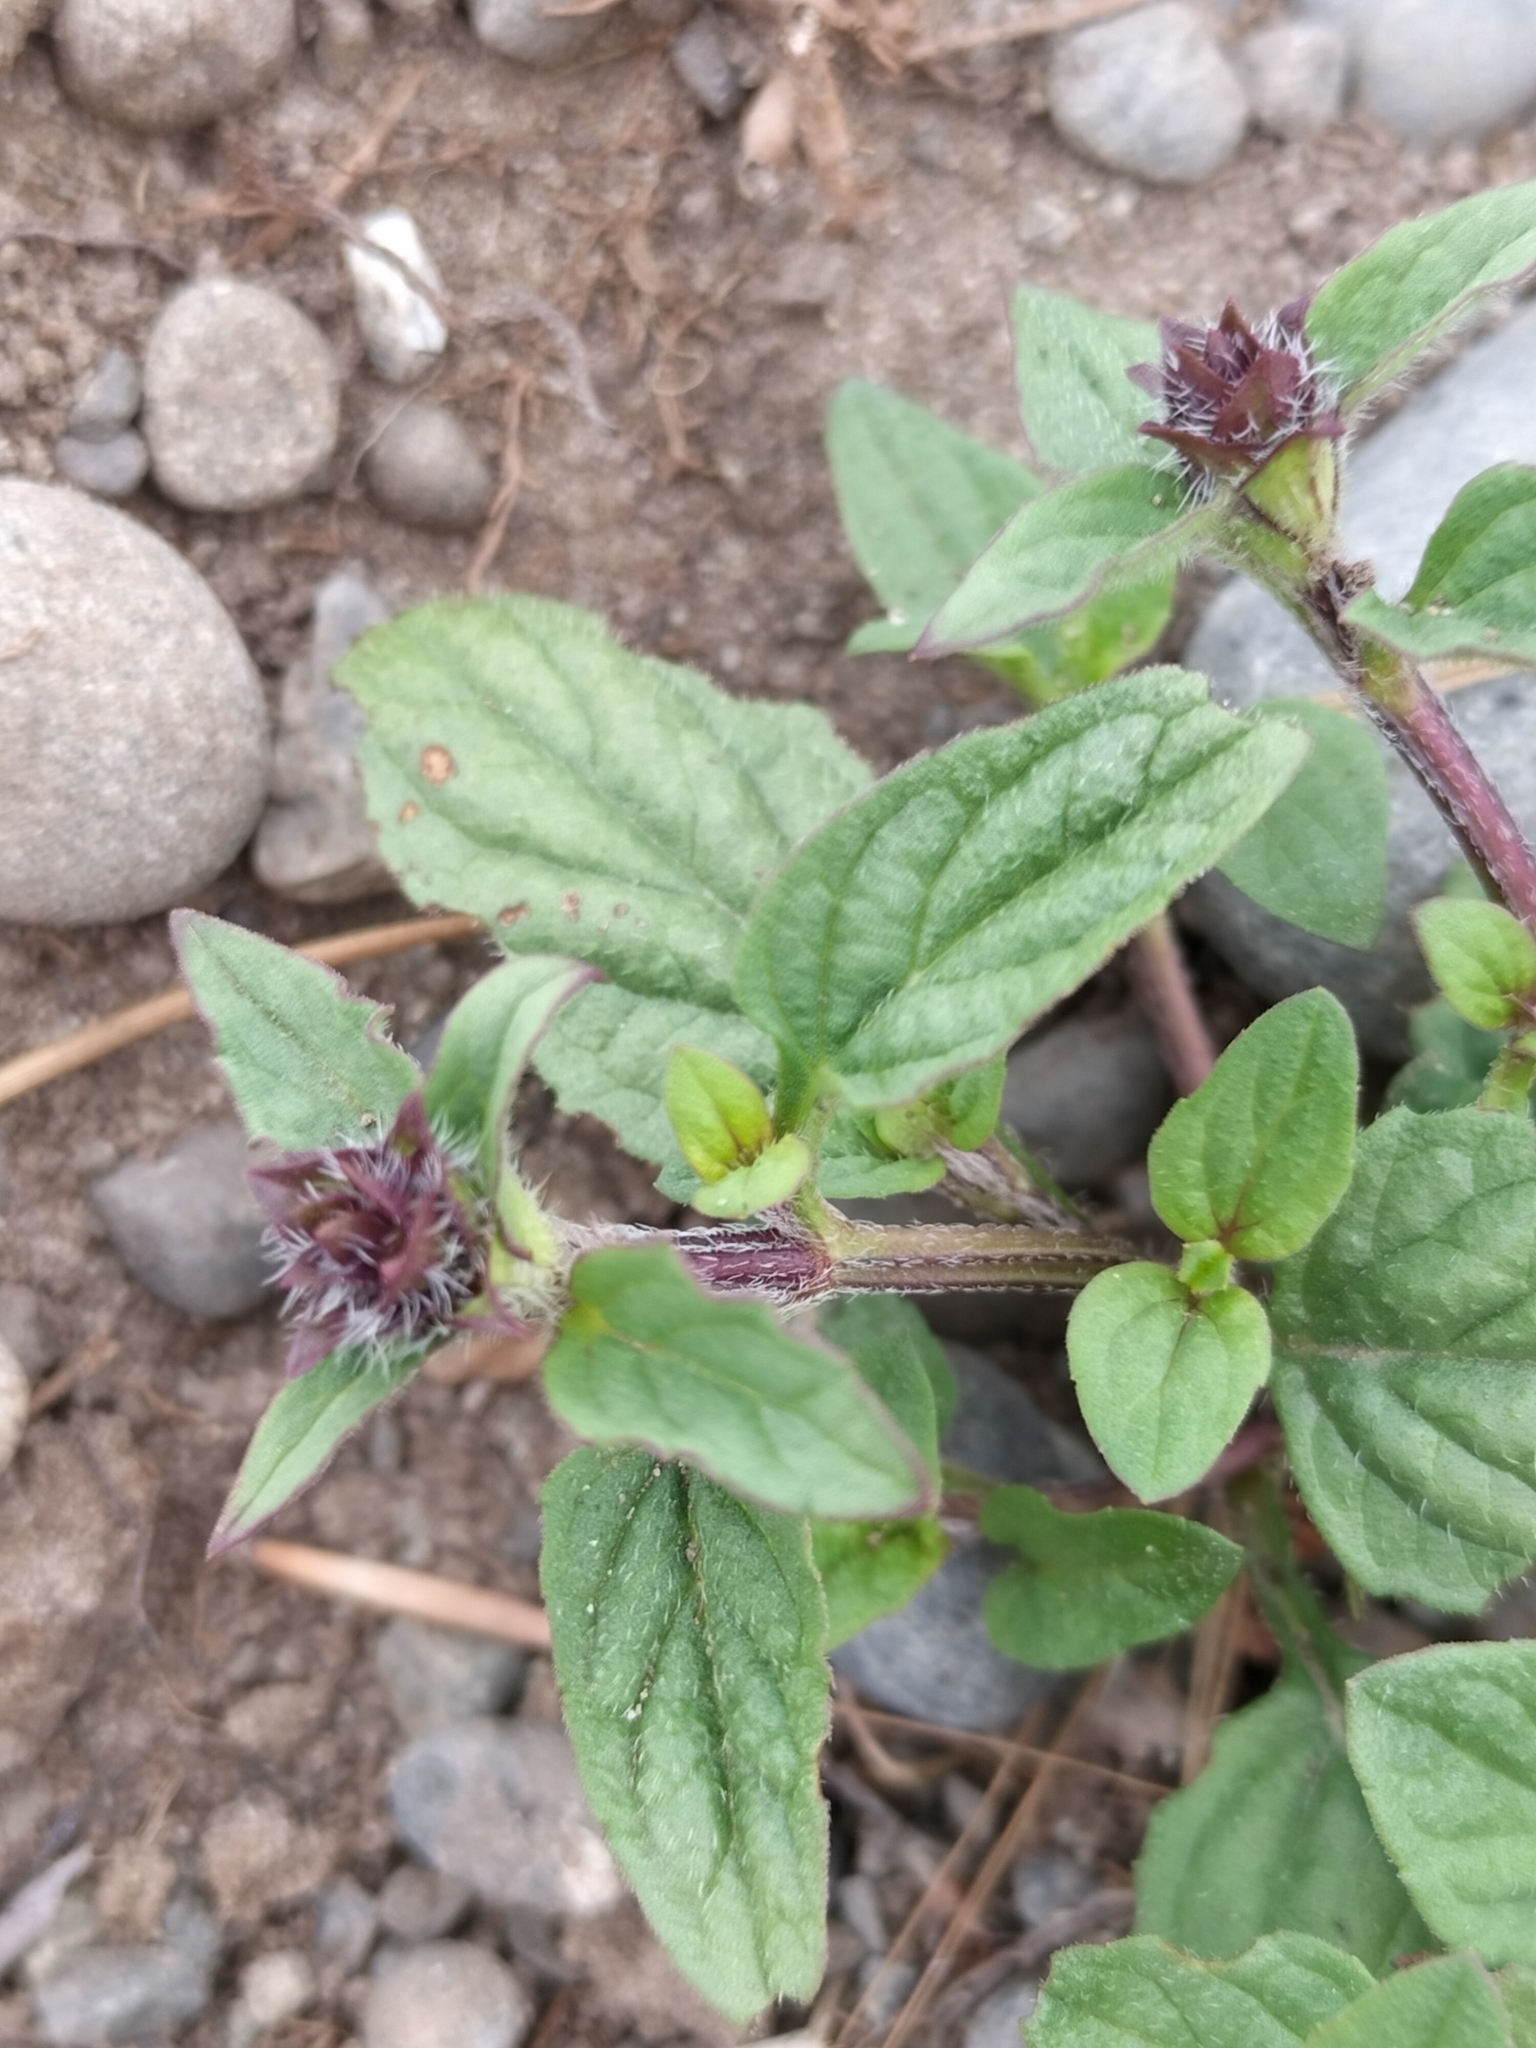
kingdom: Plantae
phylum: Tracheophyta
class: Magnoliopsida
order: Lamiales
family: Lamiaceae
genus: Prunella
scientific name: Prunella vulgaris
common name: Heal-all
